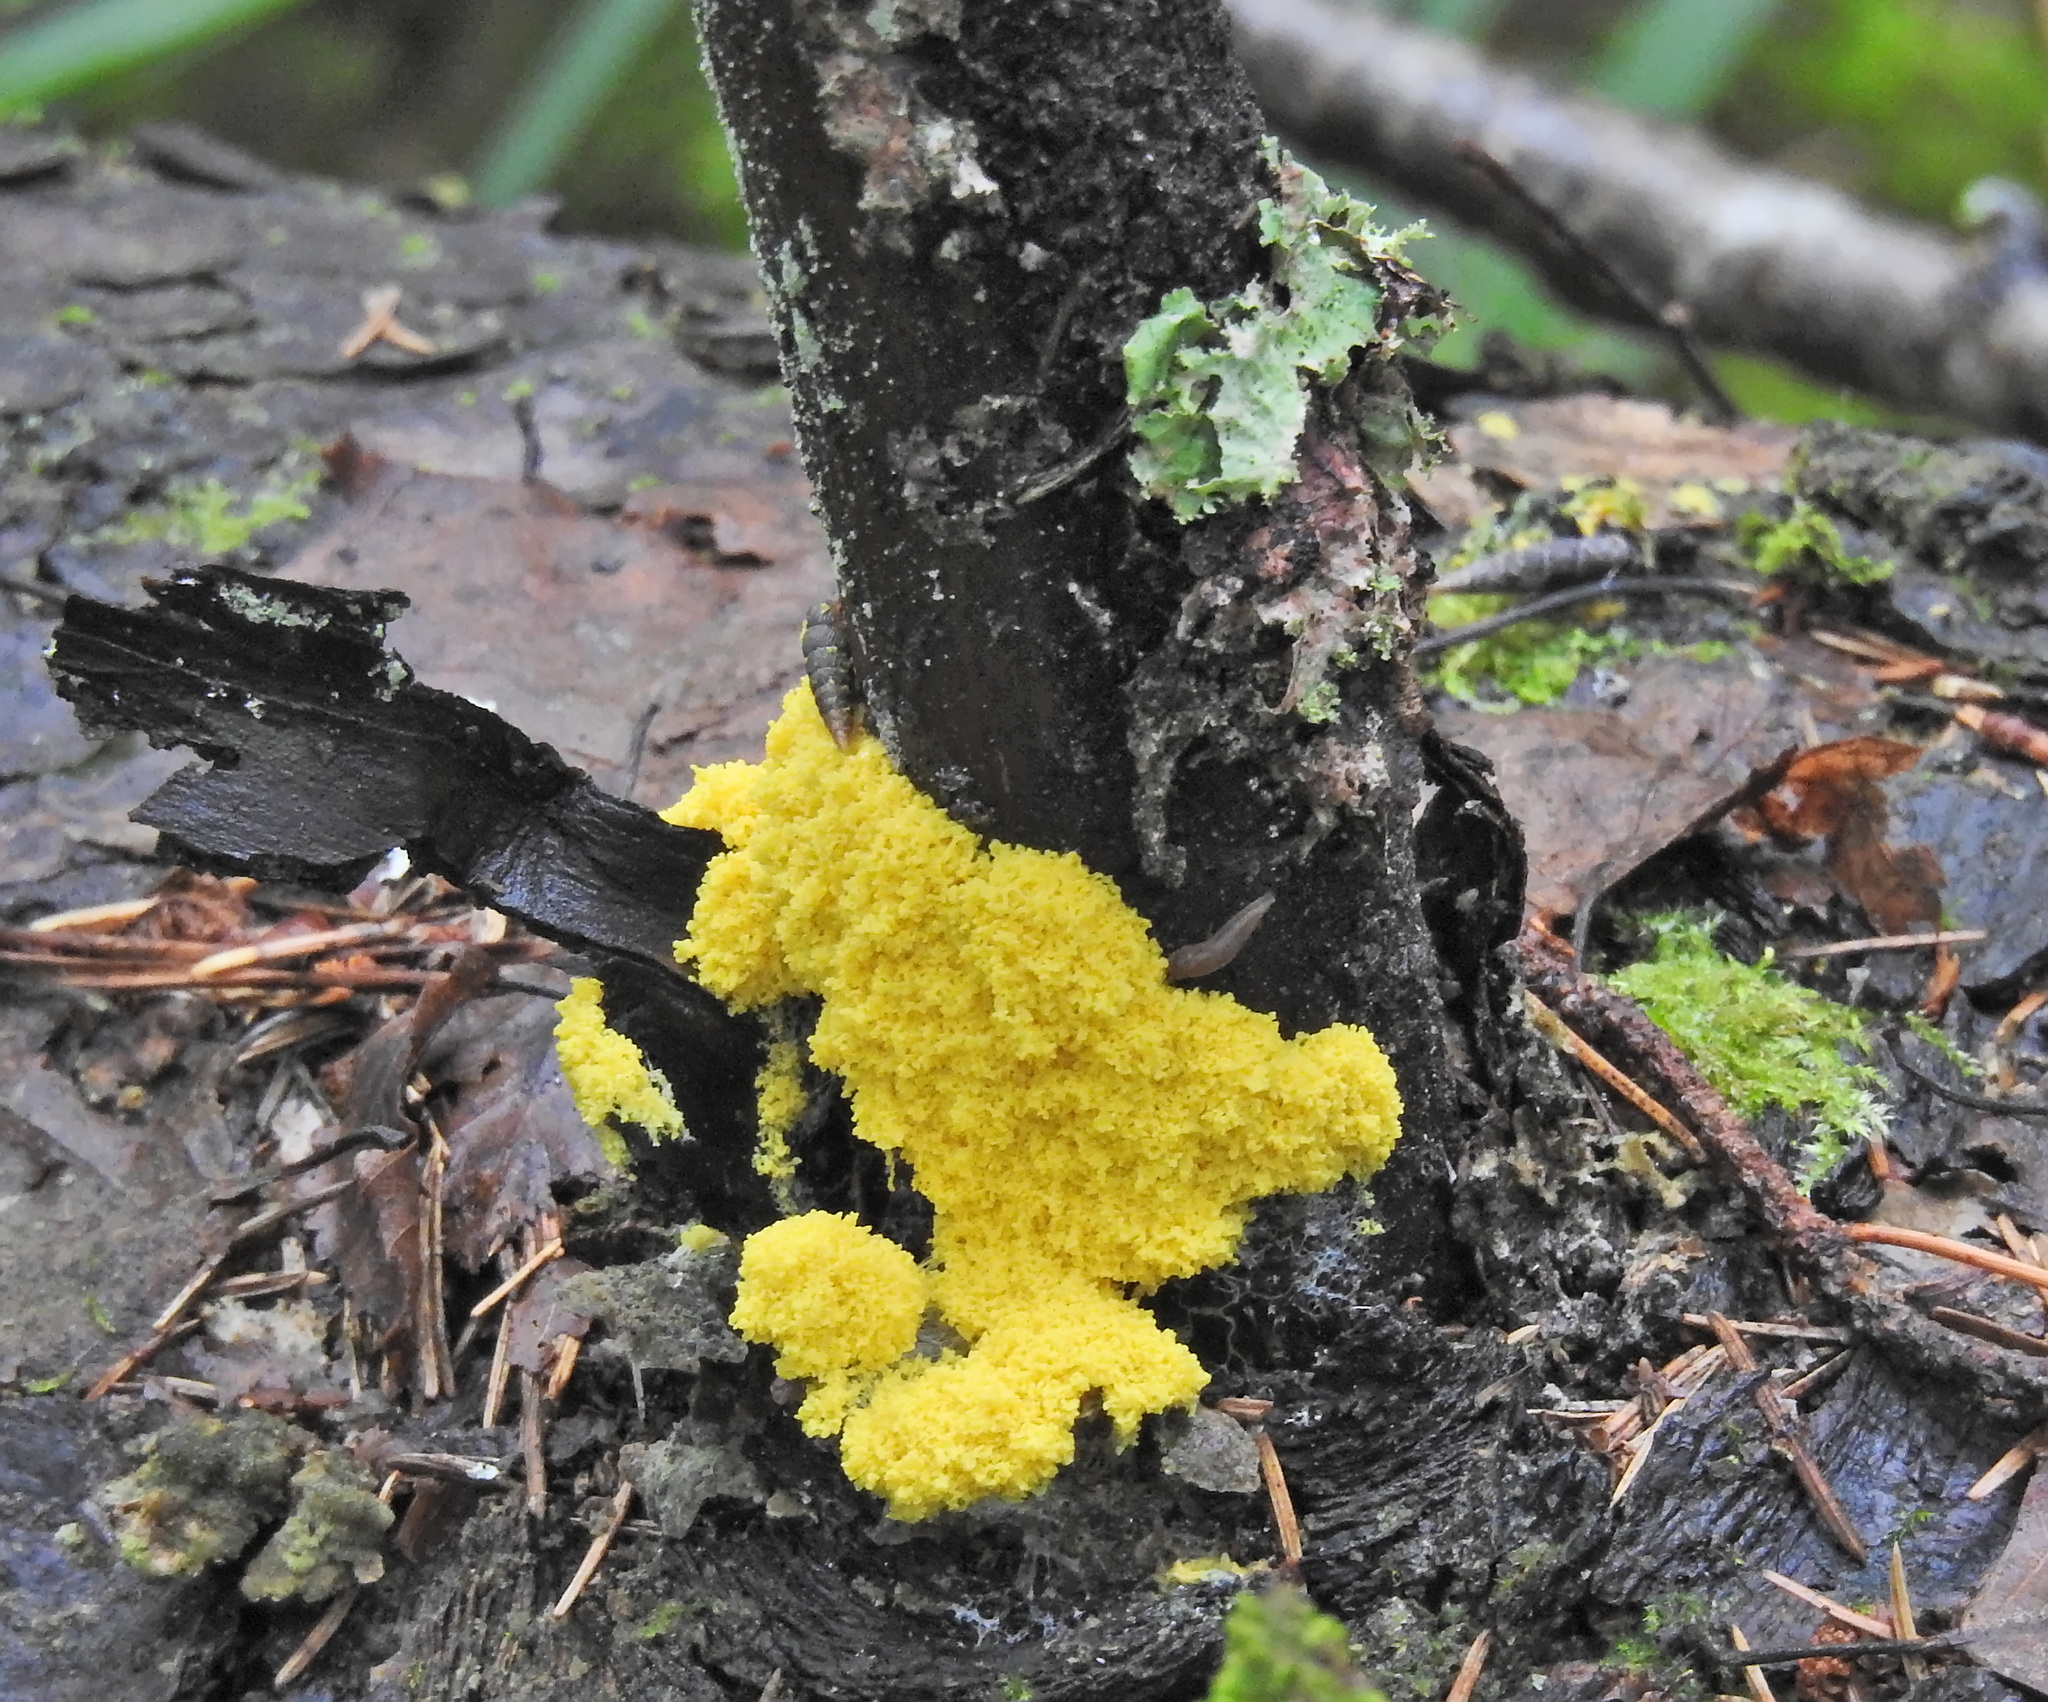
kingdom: Protozoa
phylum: Mycetozoa
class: Myxomycetes
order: Physarales
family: Physaraceae
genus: Fuligo
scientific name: Fuligo septica
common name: Dog vomit slime mold
